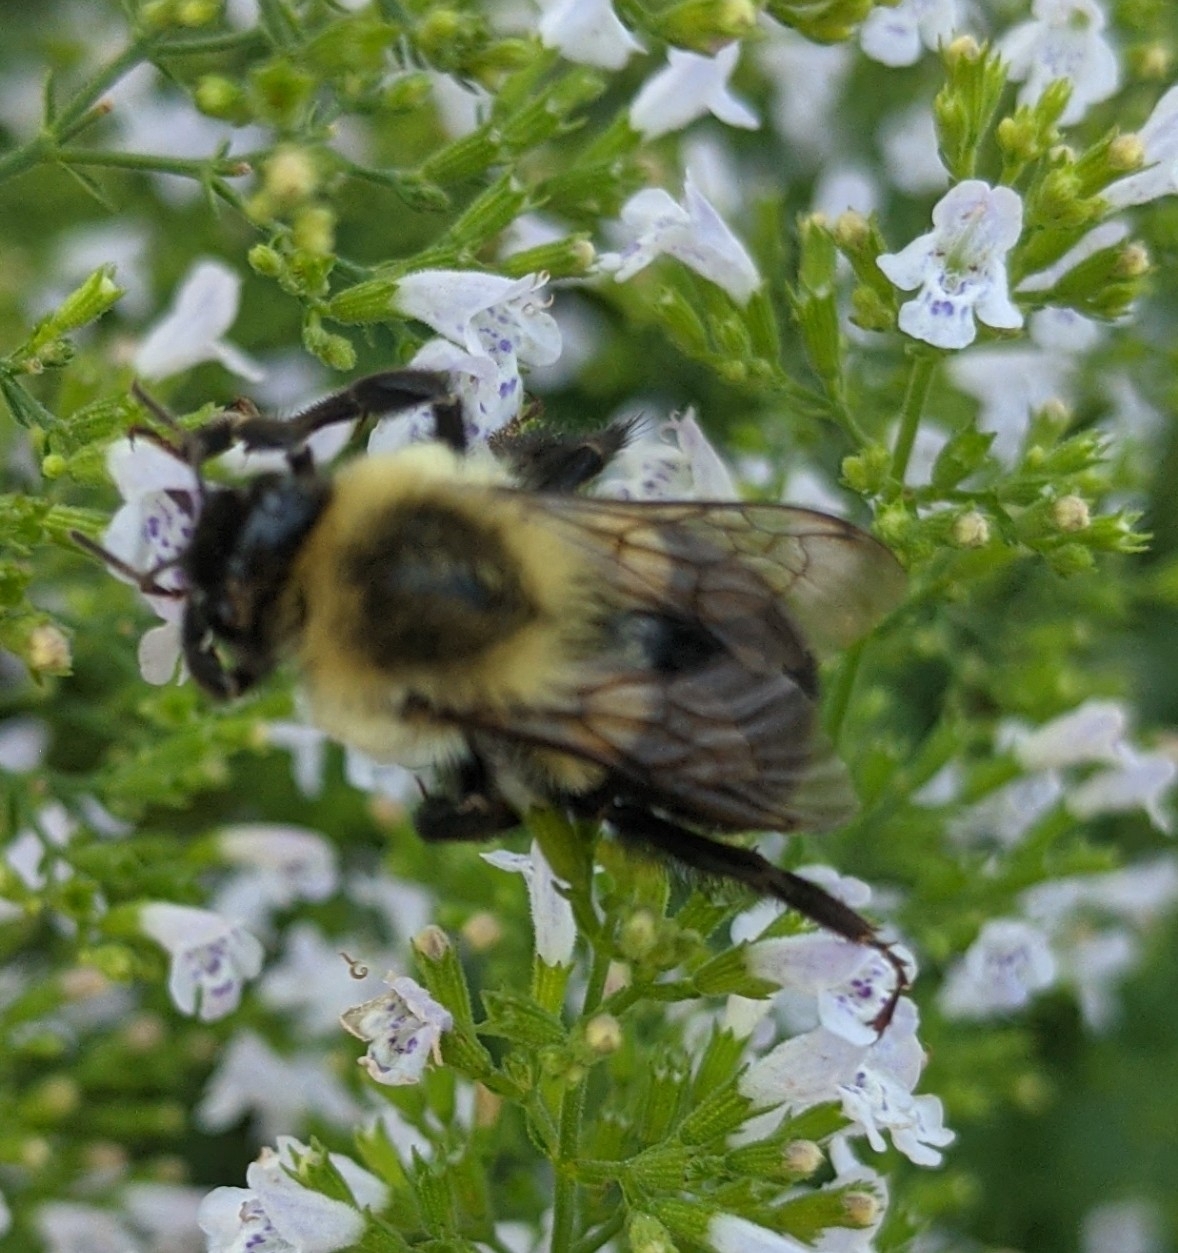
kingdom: Animalia
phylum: Arthropoda
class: Insecta
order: Hymenoptera
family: Apidae
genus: Bombus
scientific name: Bombus impatiens
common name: Common eastern bumble bee
